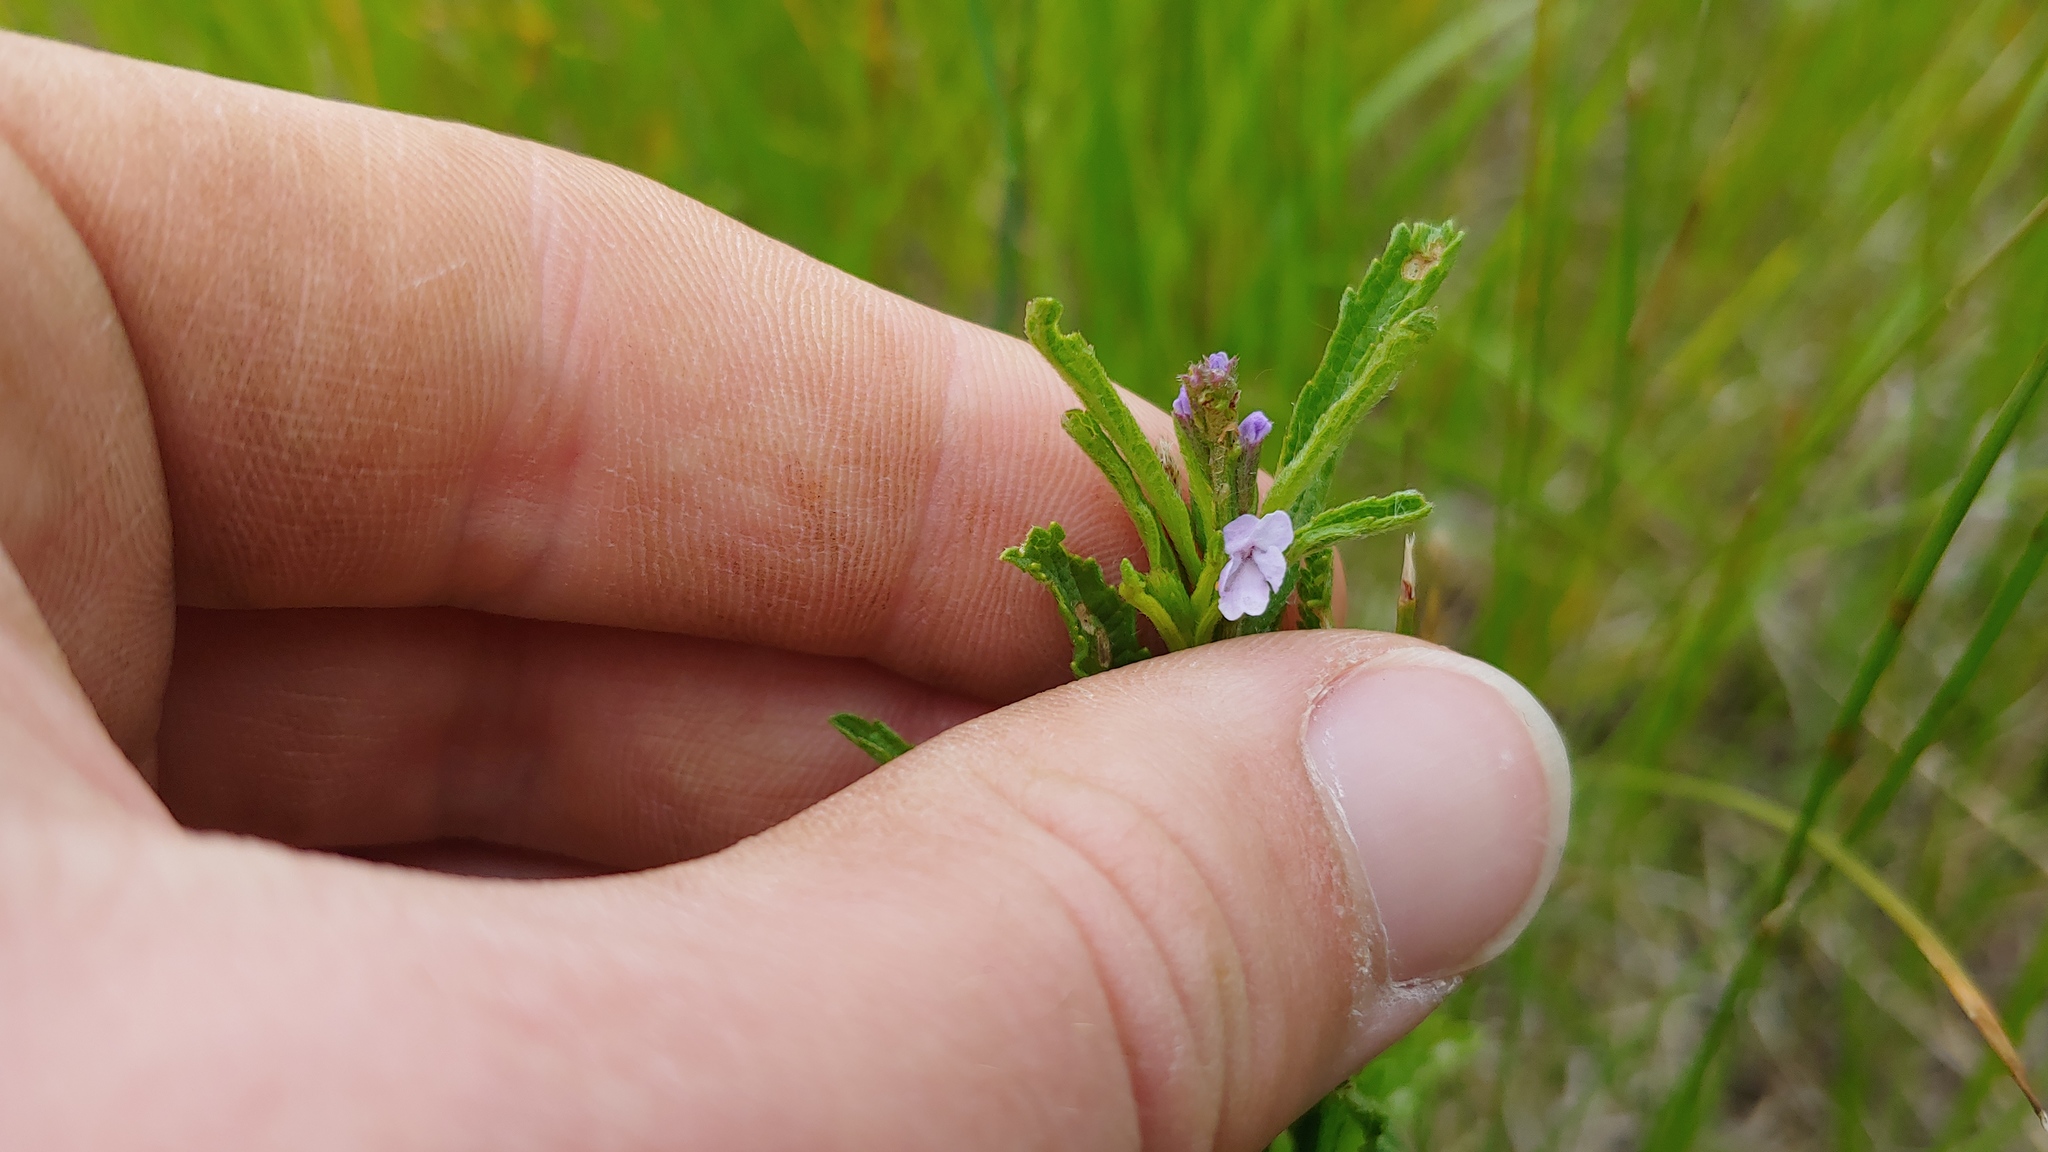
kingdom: Plantae
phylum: Tracheophyta
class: Magnoliopsida
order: Lamiales
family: Verbenaceae
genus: Verbena
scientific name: Verbena simplex
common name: Narrow-leaf vervain
